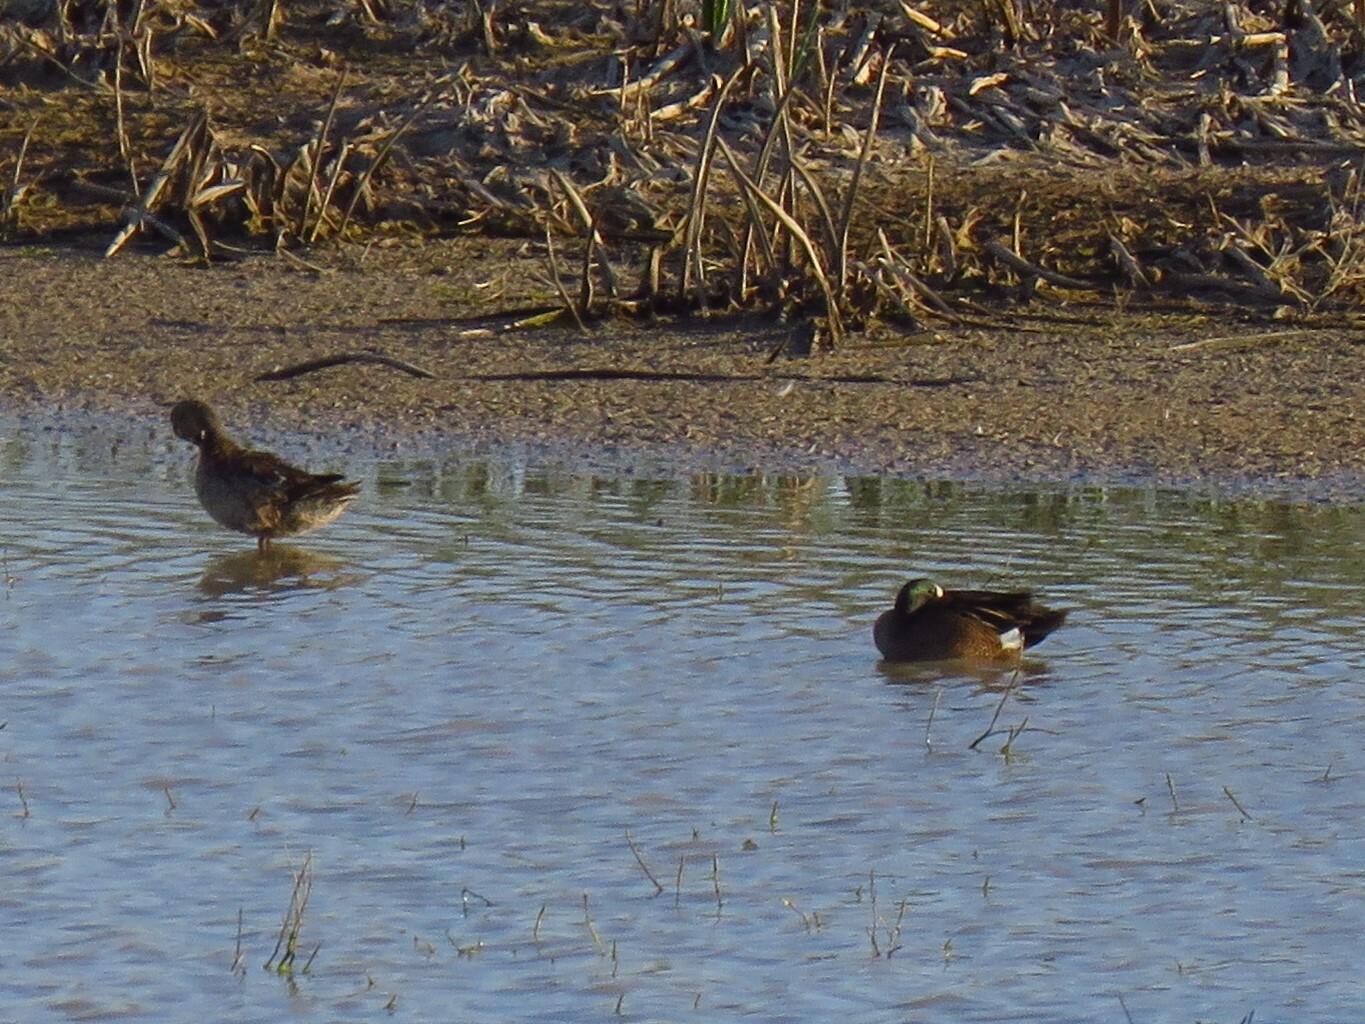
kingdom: Animalia
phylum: Chordata
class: Aves
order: Anseriformes
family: Anatidae
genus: Spatula
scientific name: Spatula discors
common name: Blue-winged teal
